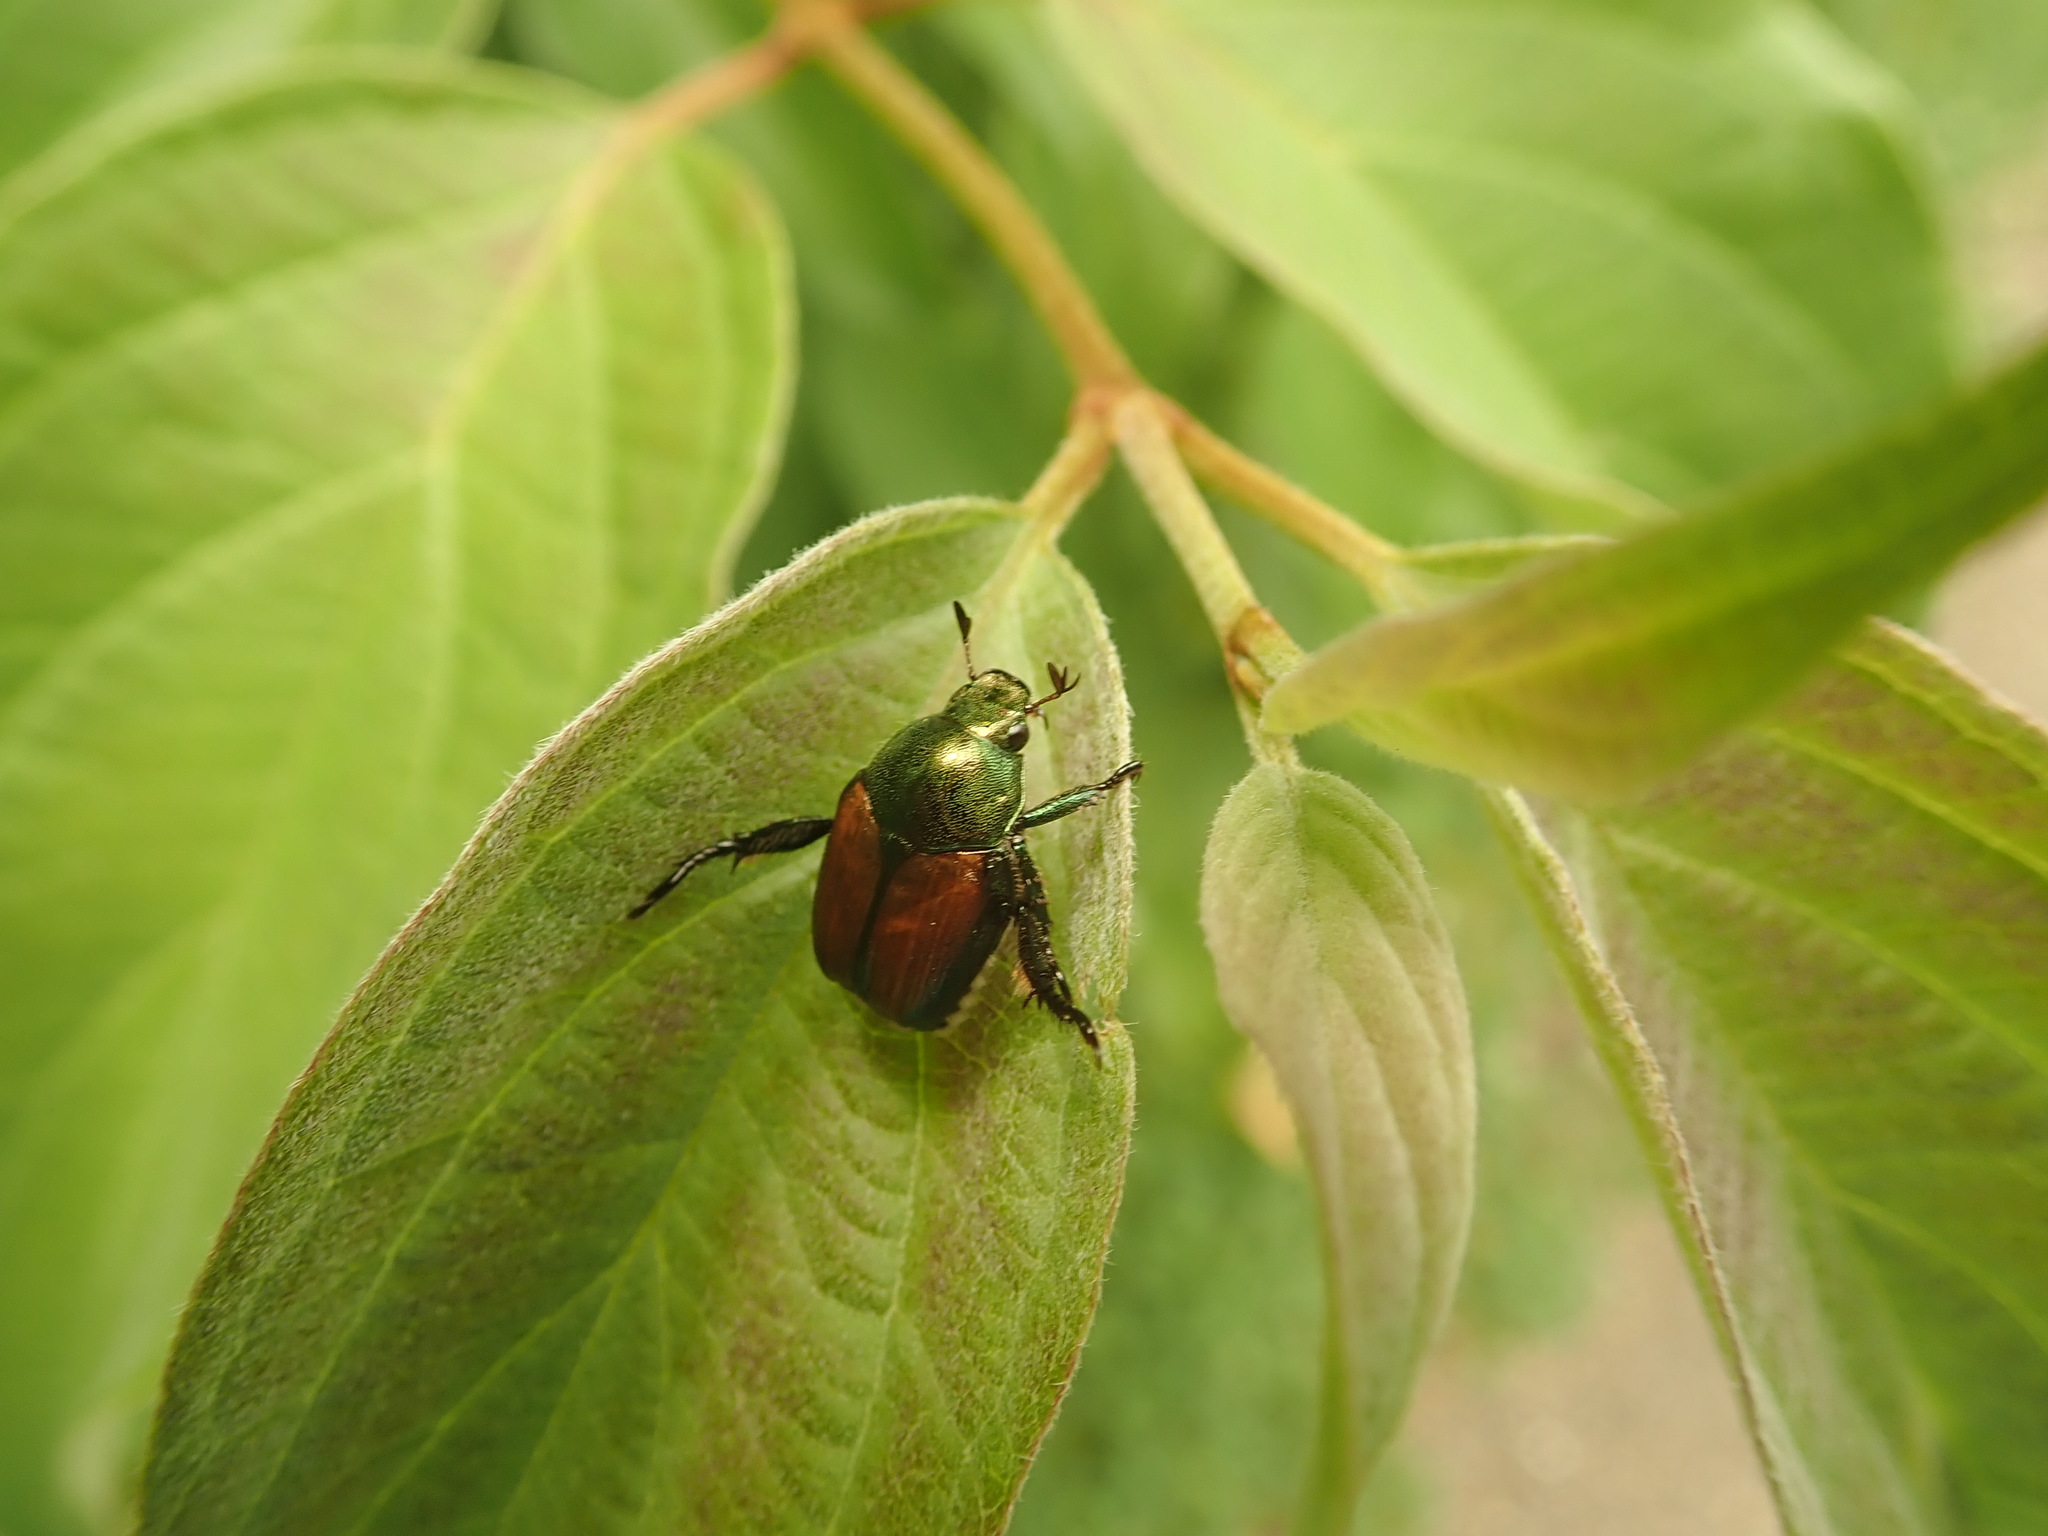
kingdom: Animalia
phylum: Arthropoda
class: Insecta
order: Coleoptera
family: Scarabaeidae
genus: Popillia
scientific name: Popillia japonica
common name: Japanese beetle
